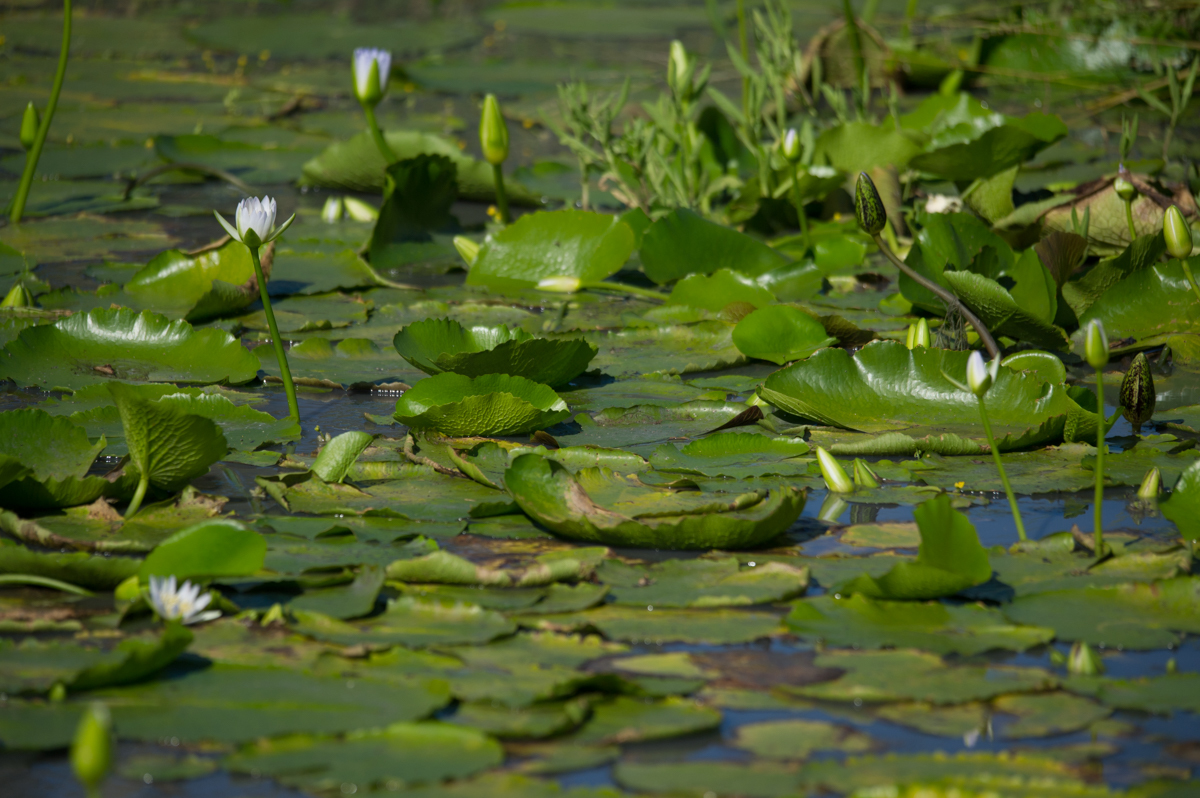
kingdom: Plantae
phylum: Tracheophyta
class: Magnoliopsida
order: Nymphaeales
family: Nymphaeaceae
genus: Nymphaea
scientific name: Nymphaea nouchali
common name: Blue lotus
